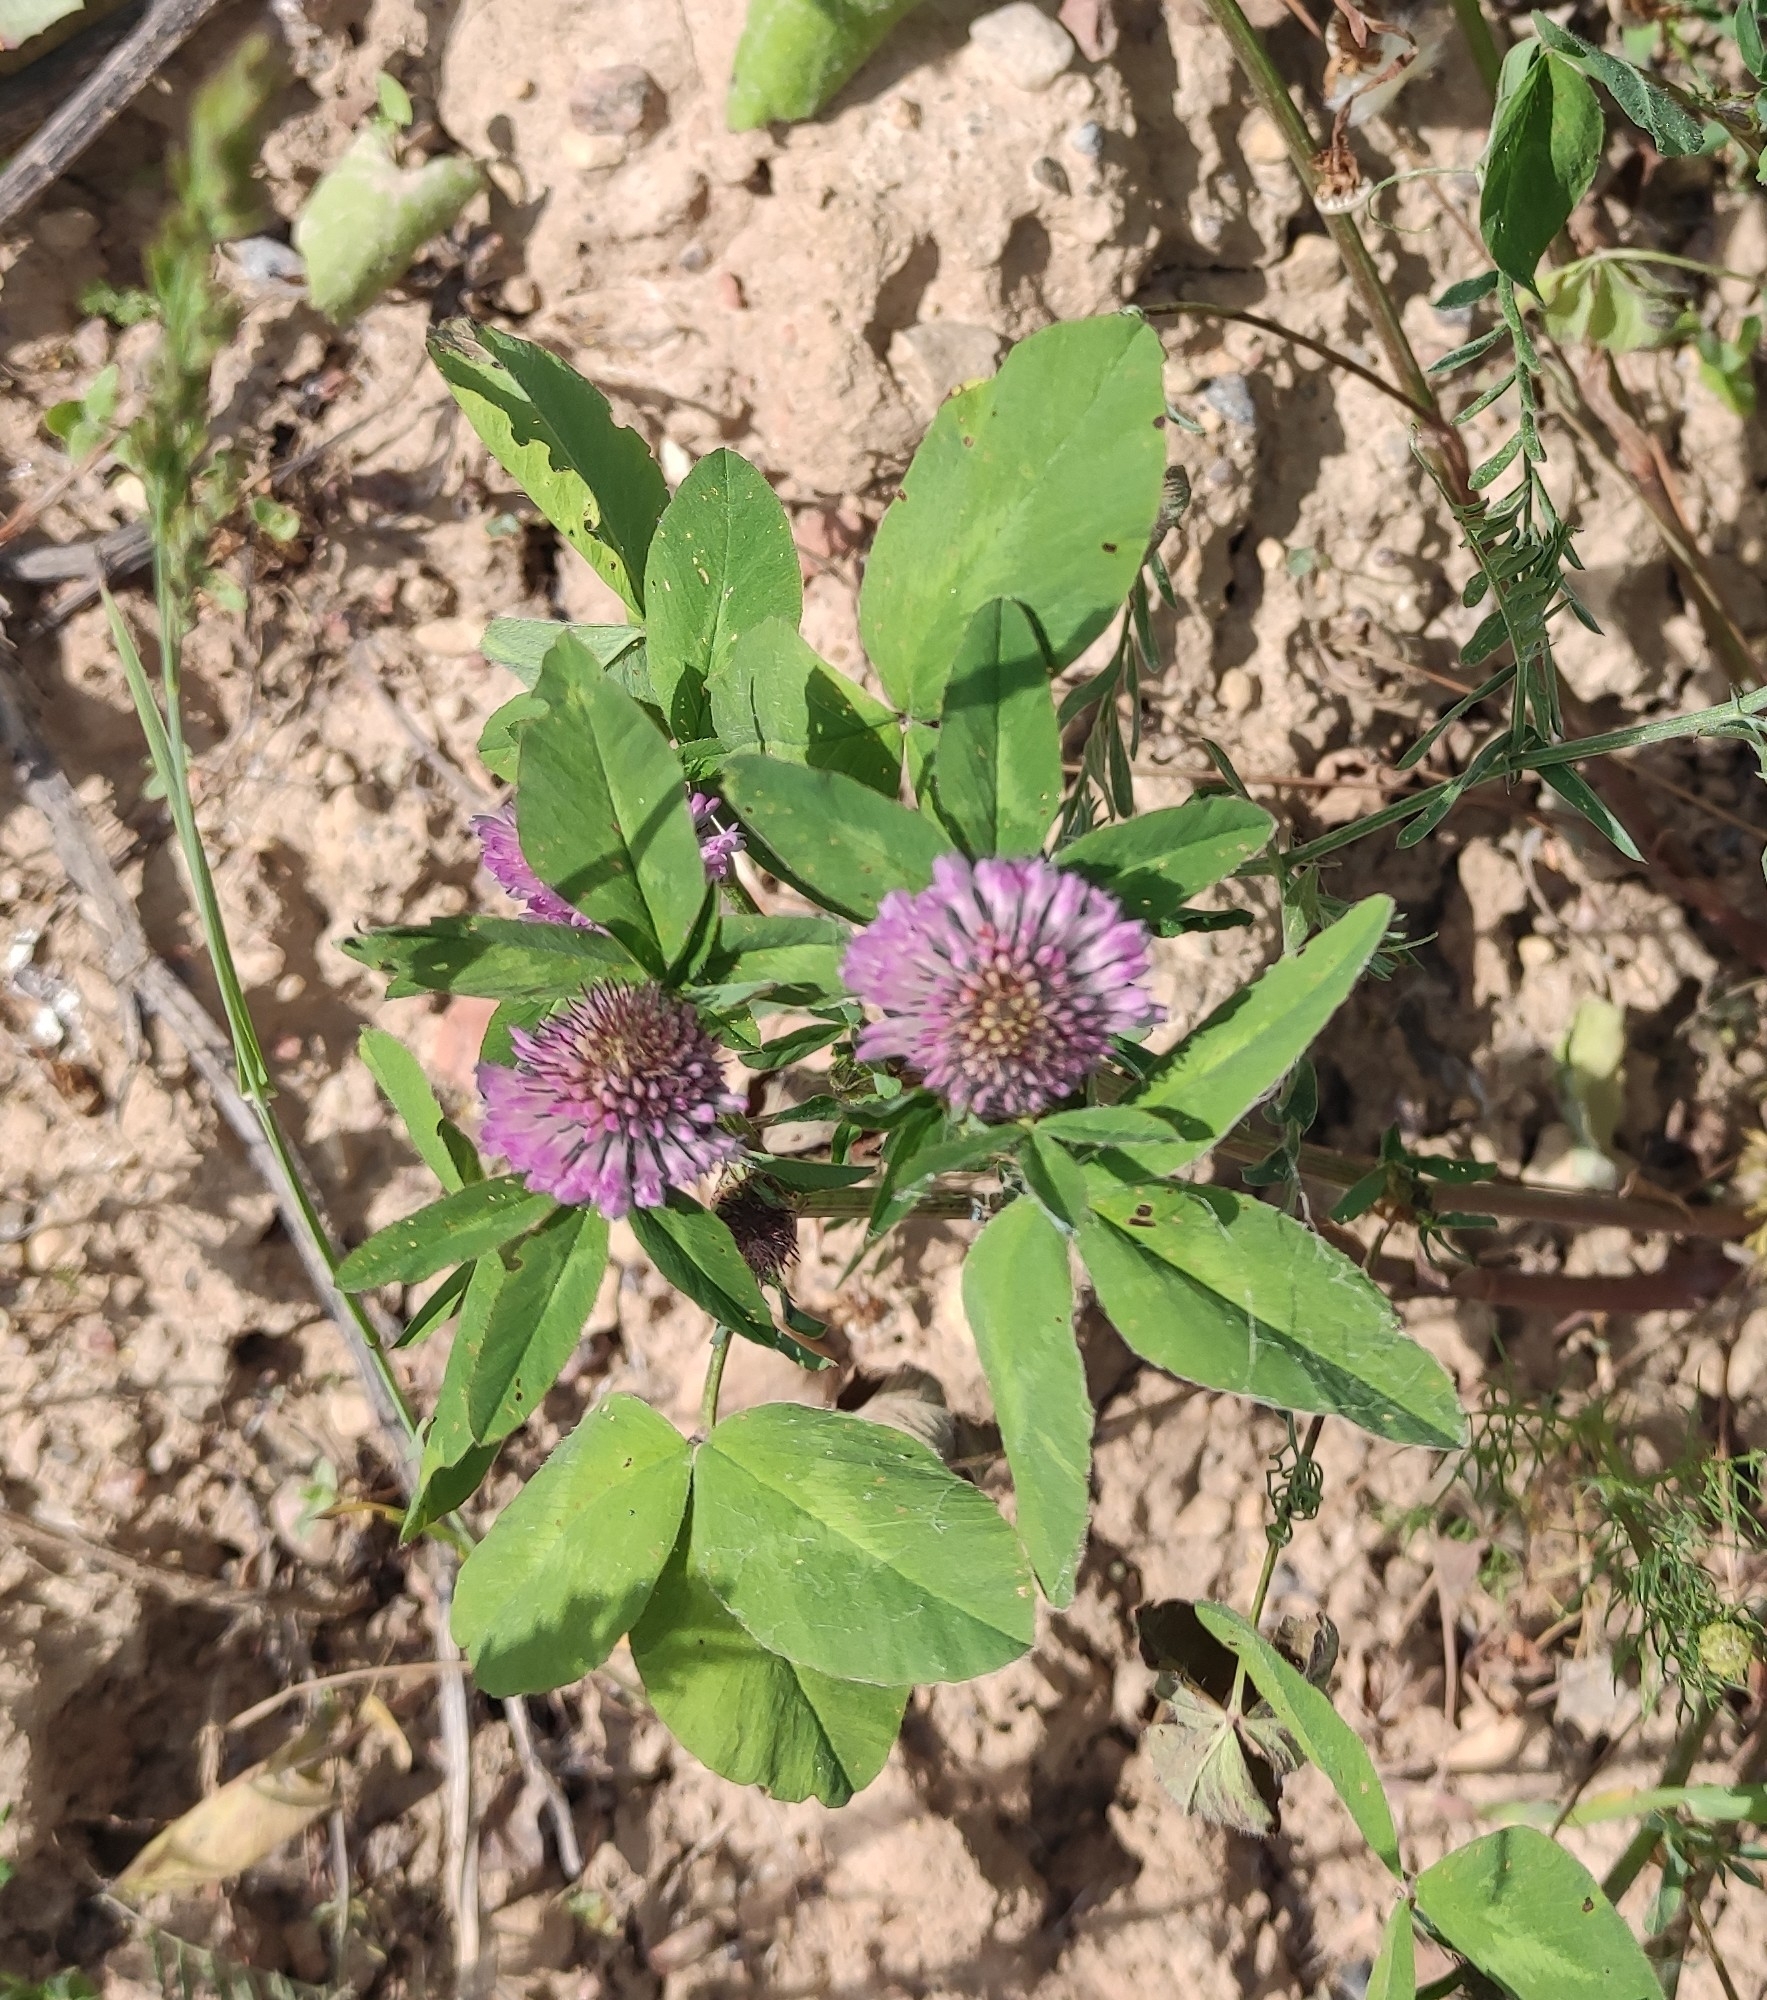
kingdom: Plantae
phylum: Tracheophyta
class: Magnoliopsida
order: Fabales
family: Fabaceae
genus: Trifolium
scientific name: Trifolium pratense
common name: Red clover
